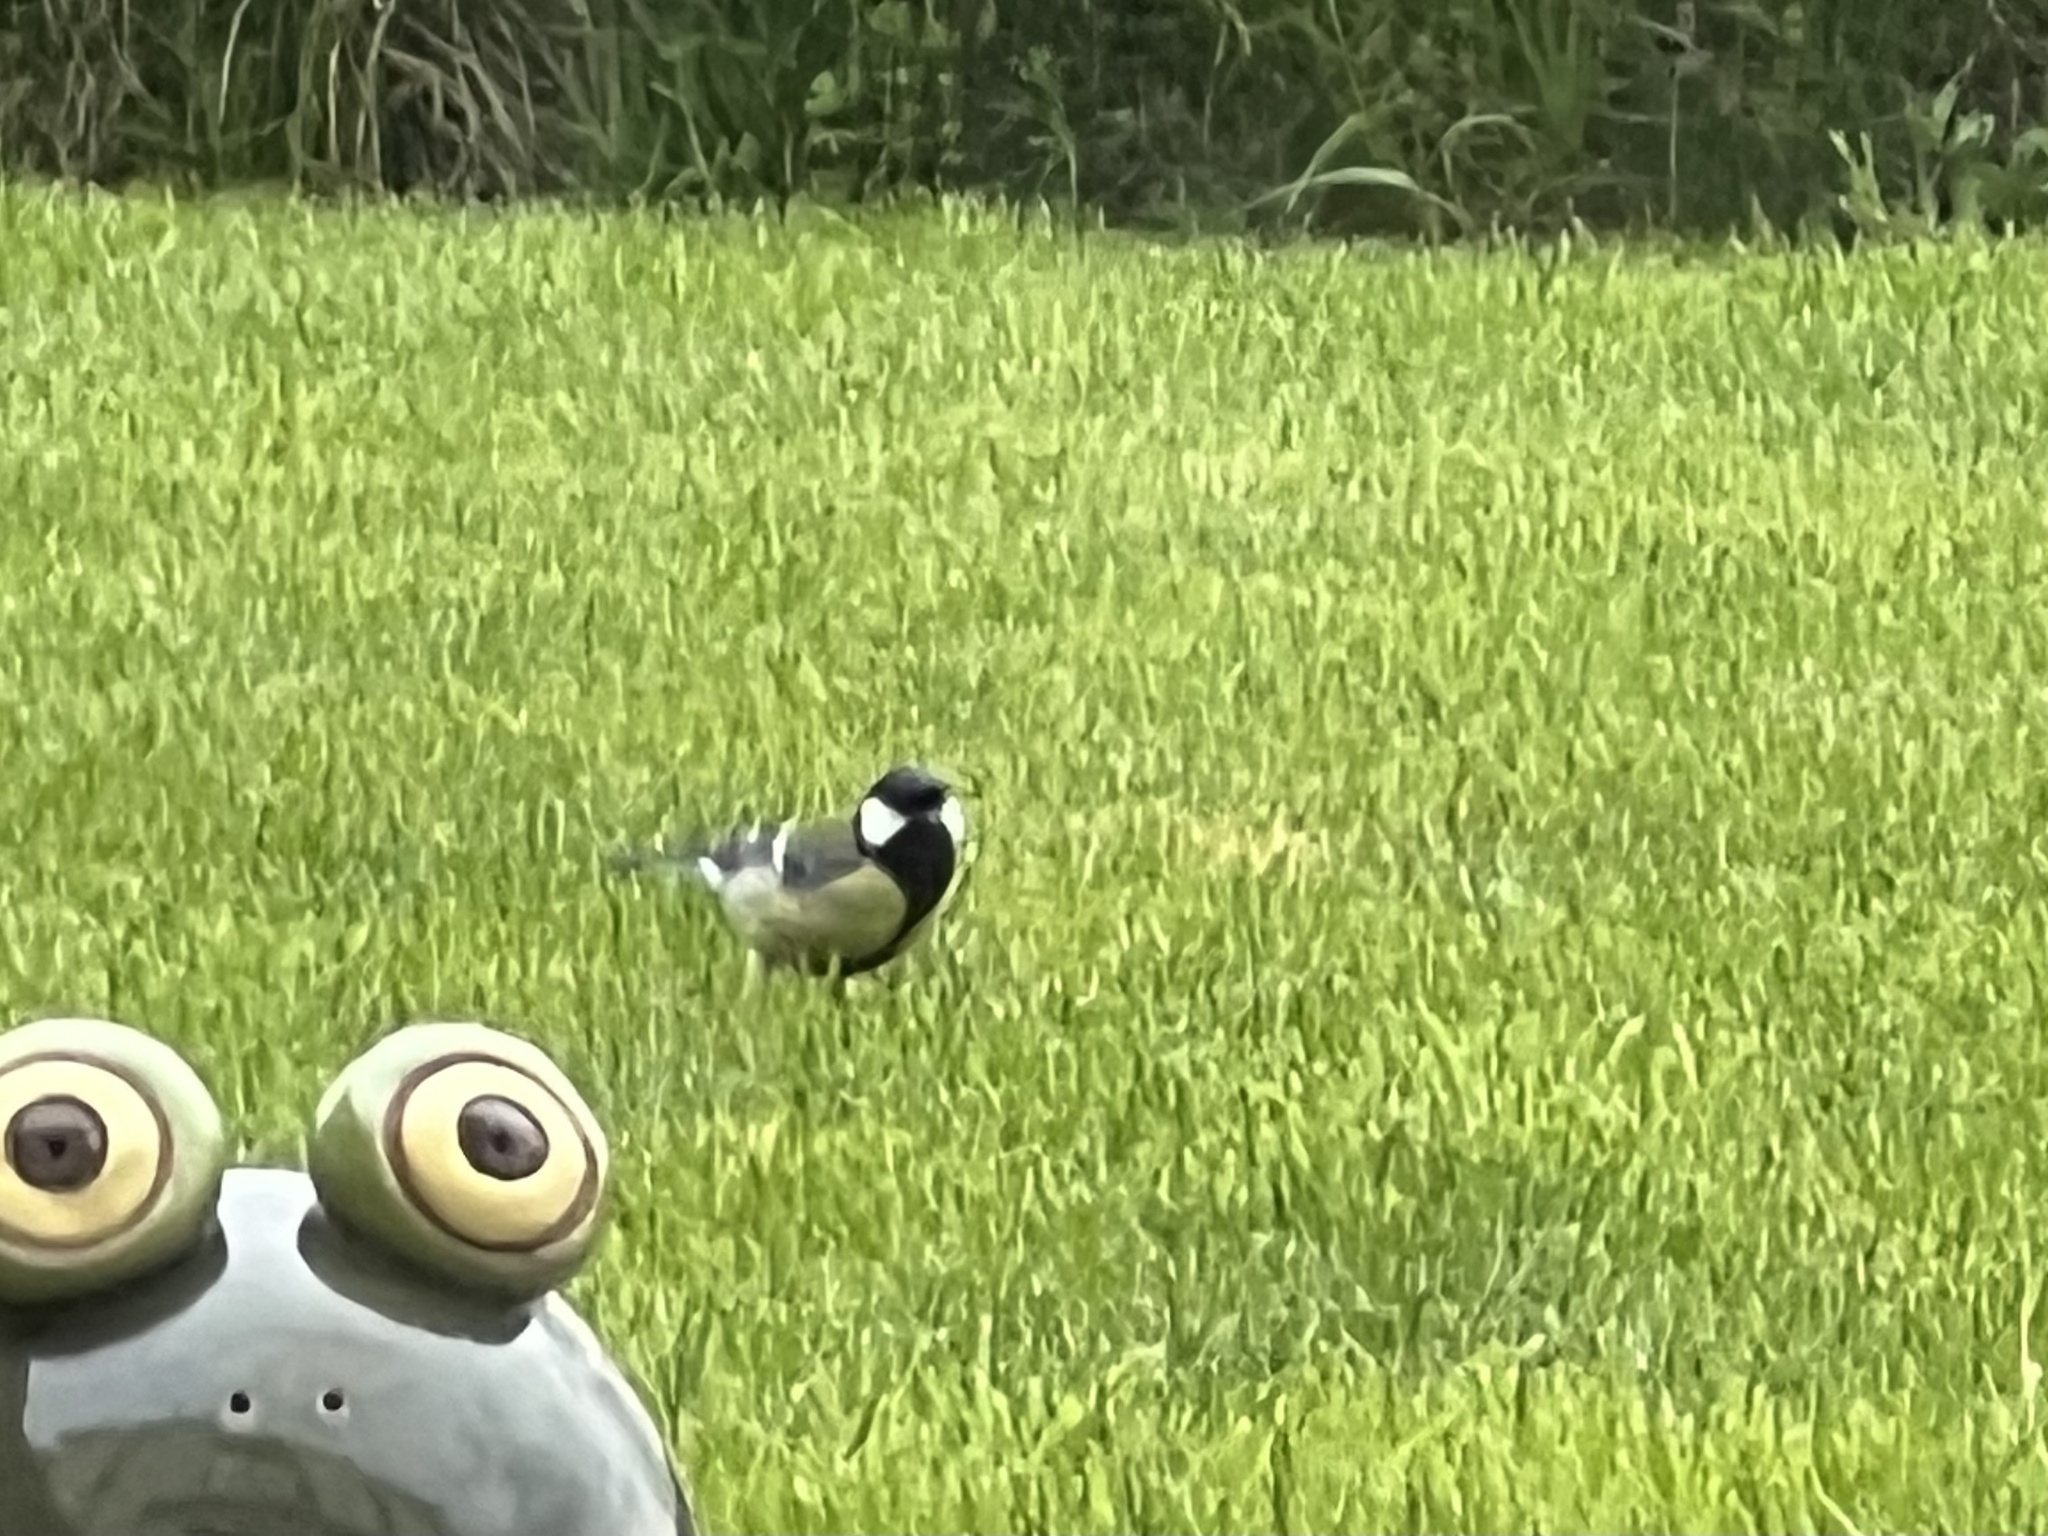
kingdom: Animalia
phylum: Chordata
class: Aves
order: Passeriformes
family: Paridae
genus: Parus
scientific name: Parus major
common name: Great tit
